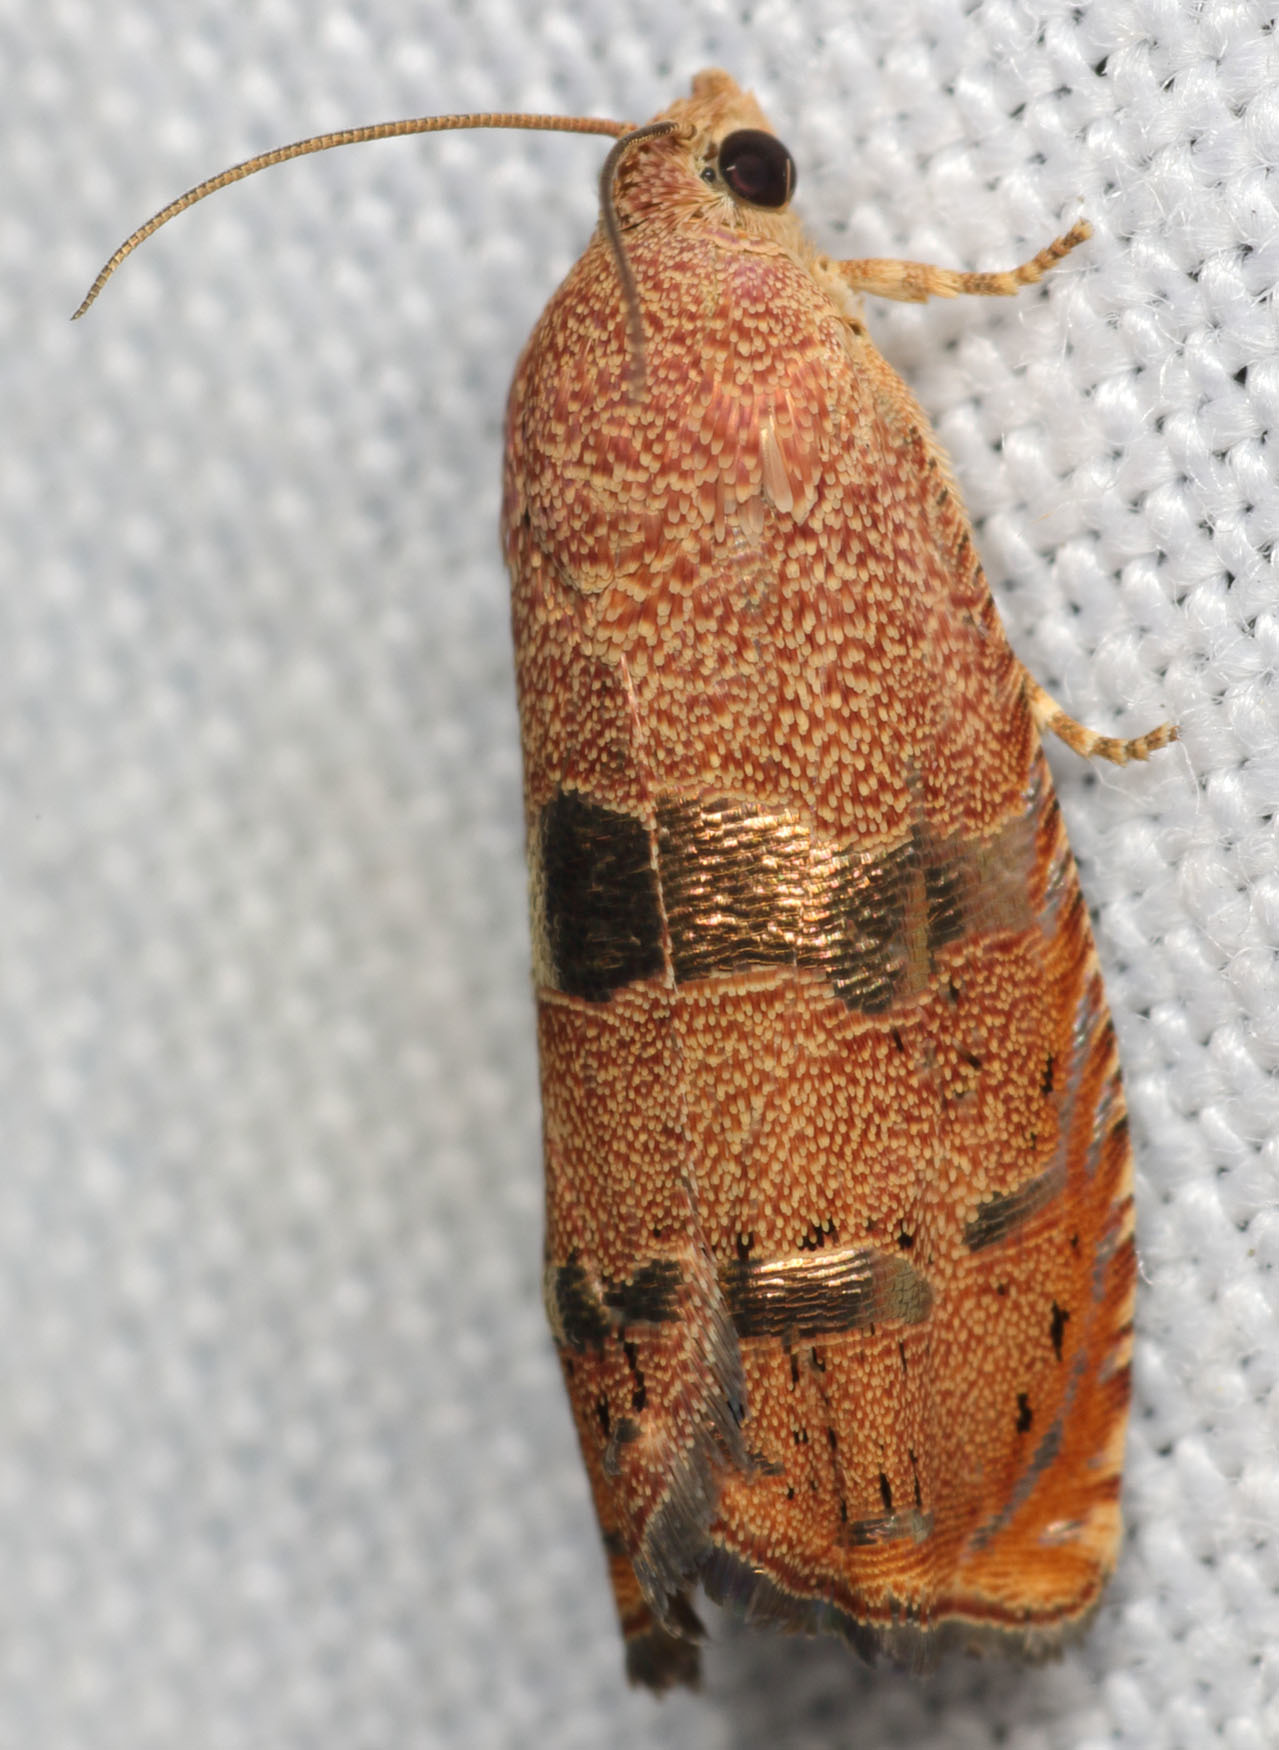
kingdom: Animalia
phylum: Arthropoda
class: Insecta
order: Lepidoptera
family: Tortricidae
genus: Cydia
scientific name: Cydia latiferreana
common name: Filbertworm moth
